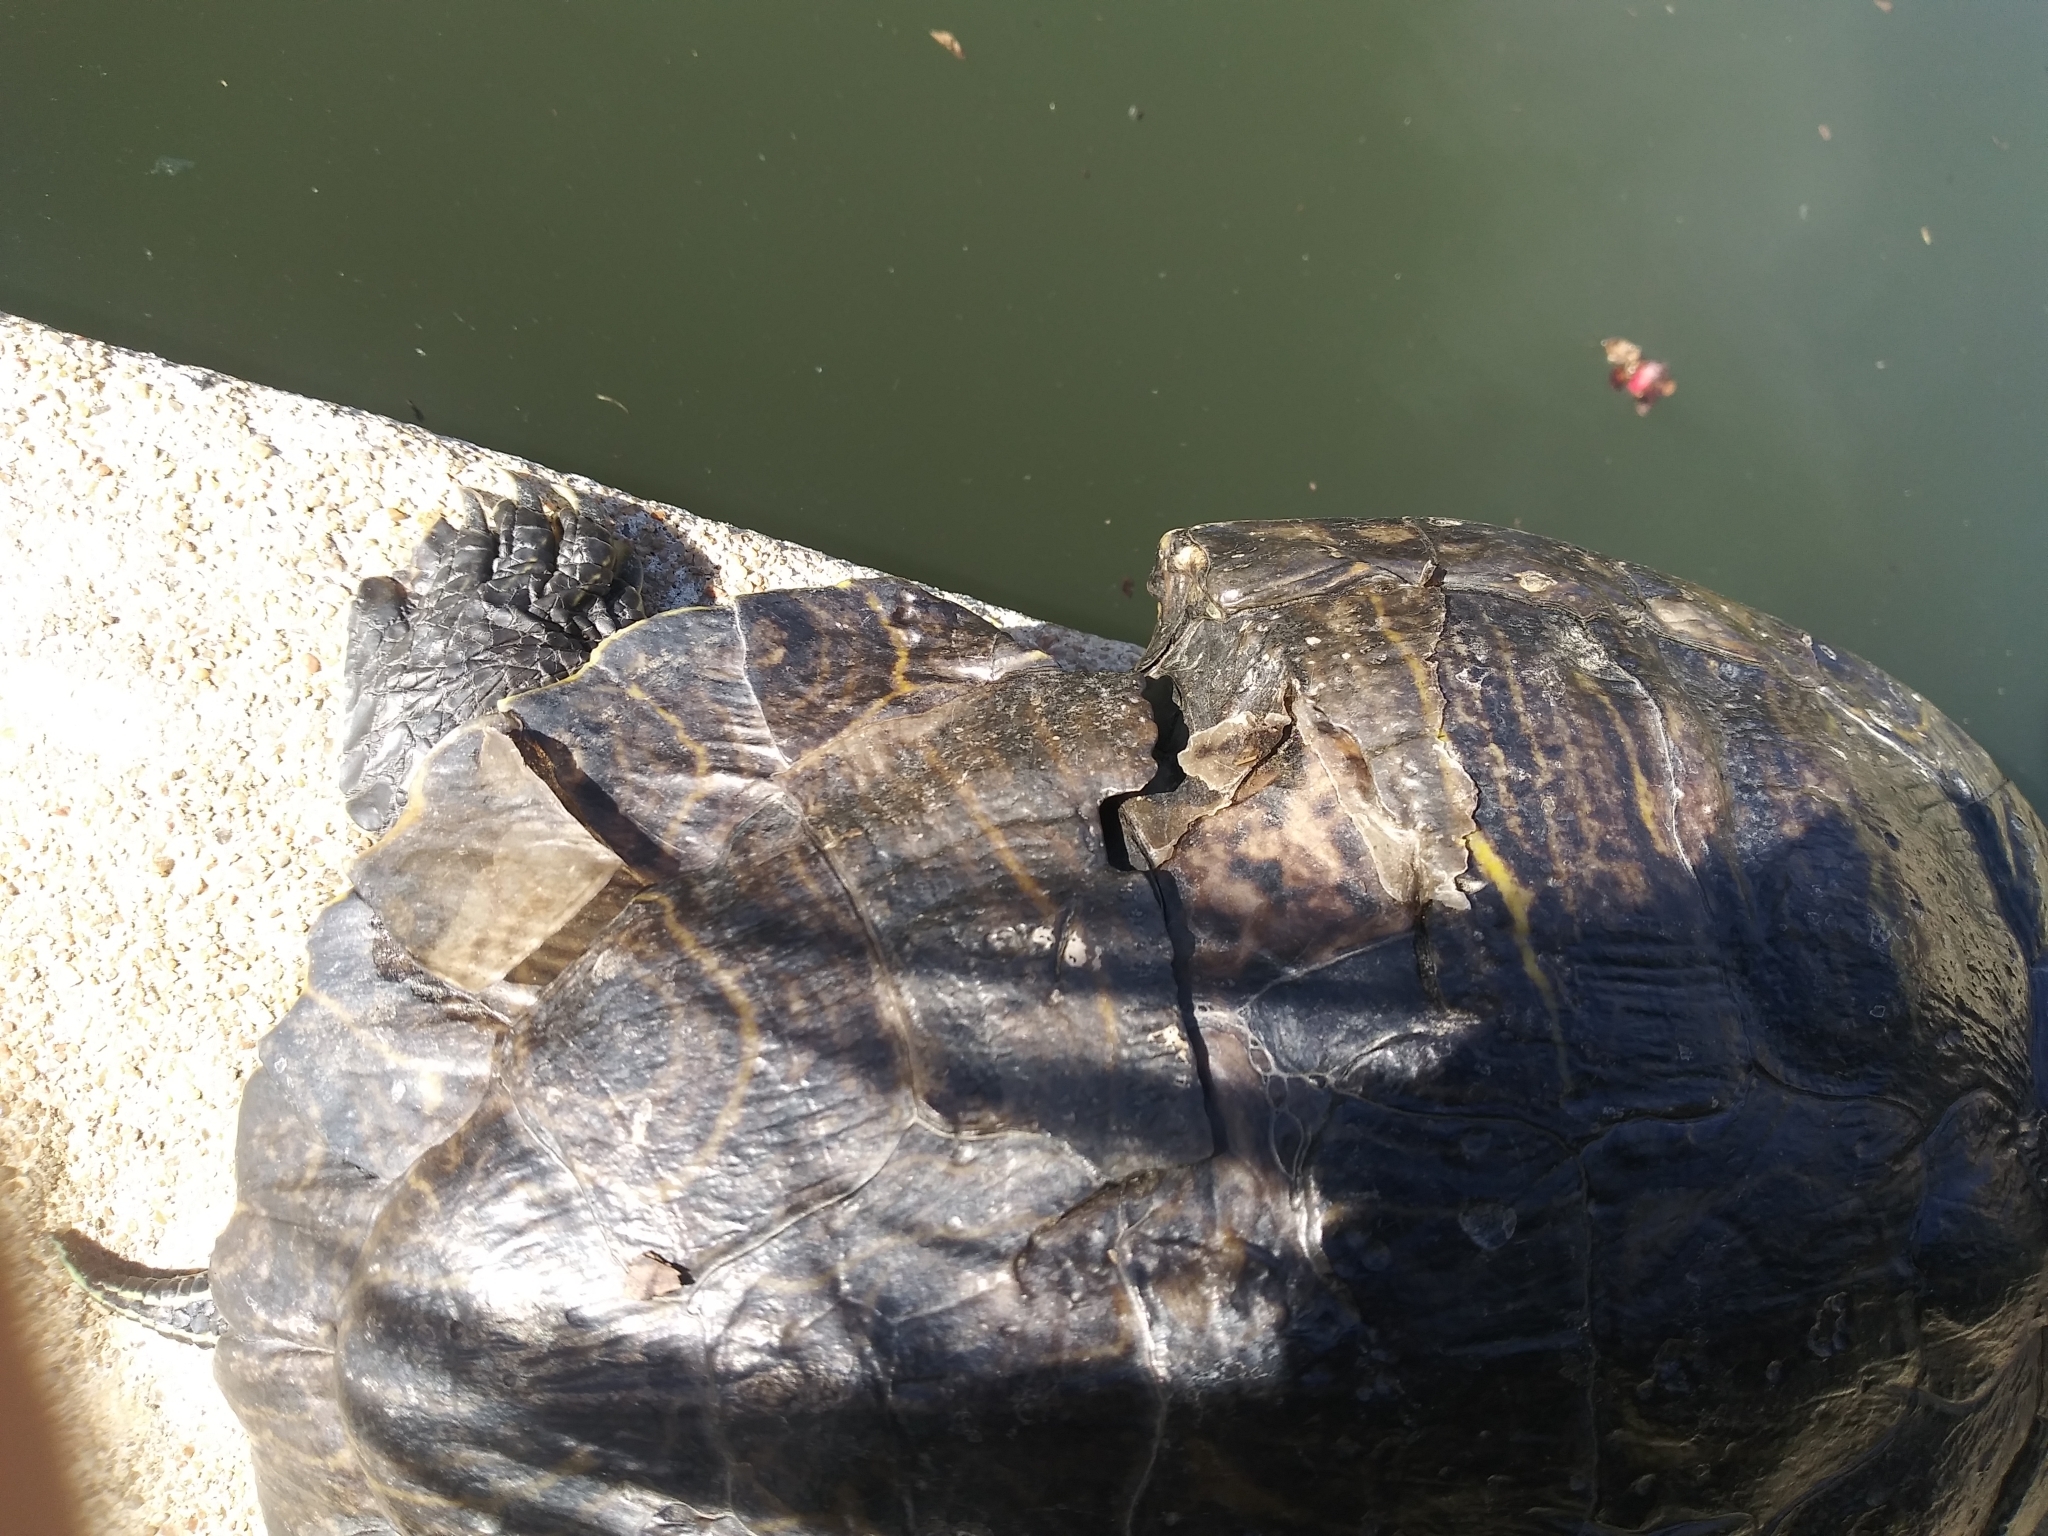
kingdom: Animalia
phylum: Chordata
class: Testudines
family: Emydidae
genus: Trachemys
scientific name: Trachemys scripta
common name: Slider
